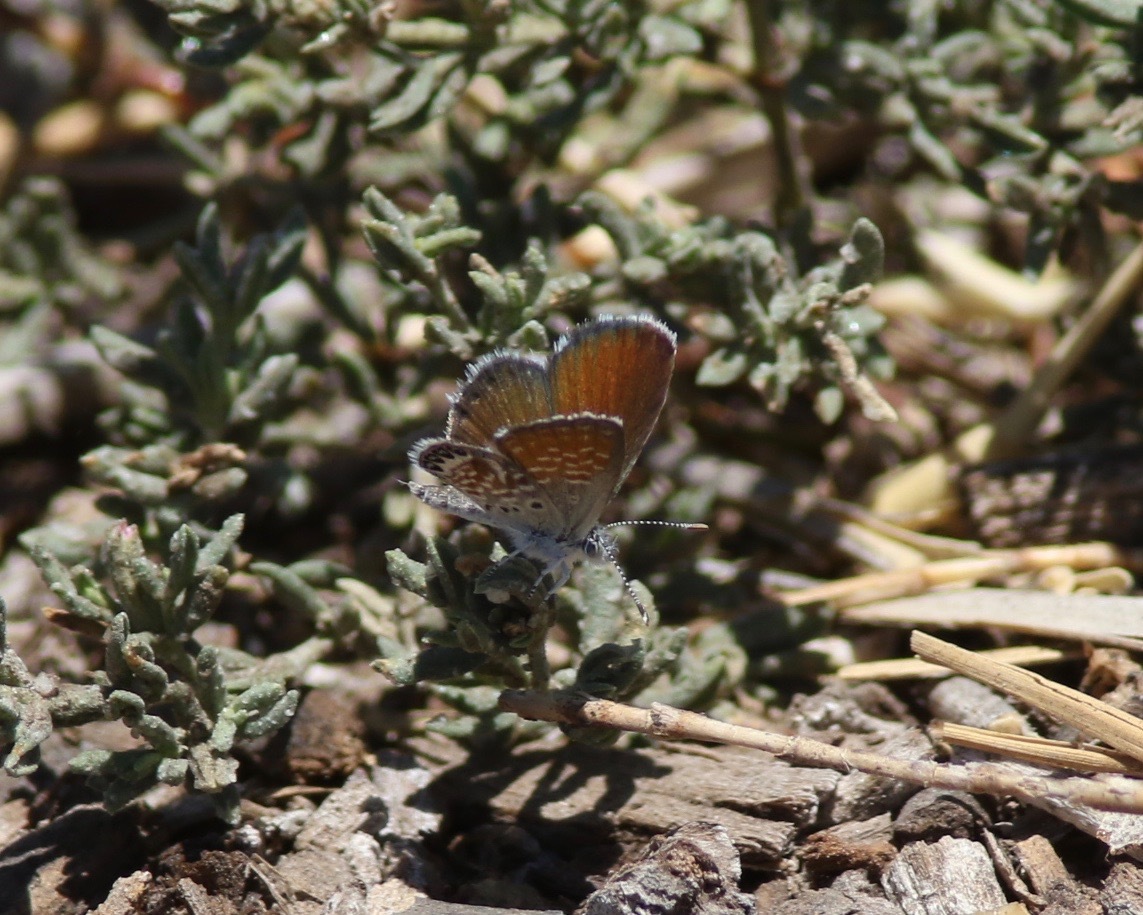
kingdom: Animalia
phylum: Arthropoda
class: Insecta
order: Lepidoptera
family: Lycaenidae
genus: Brephidium
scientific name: Brephidium exilis
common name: Pygmy blue
